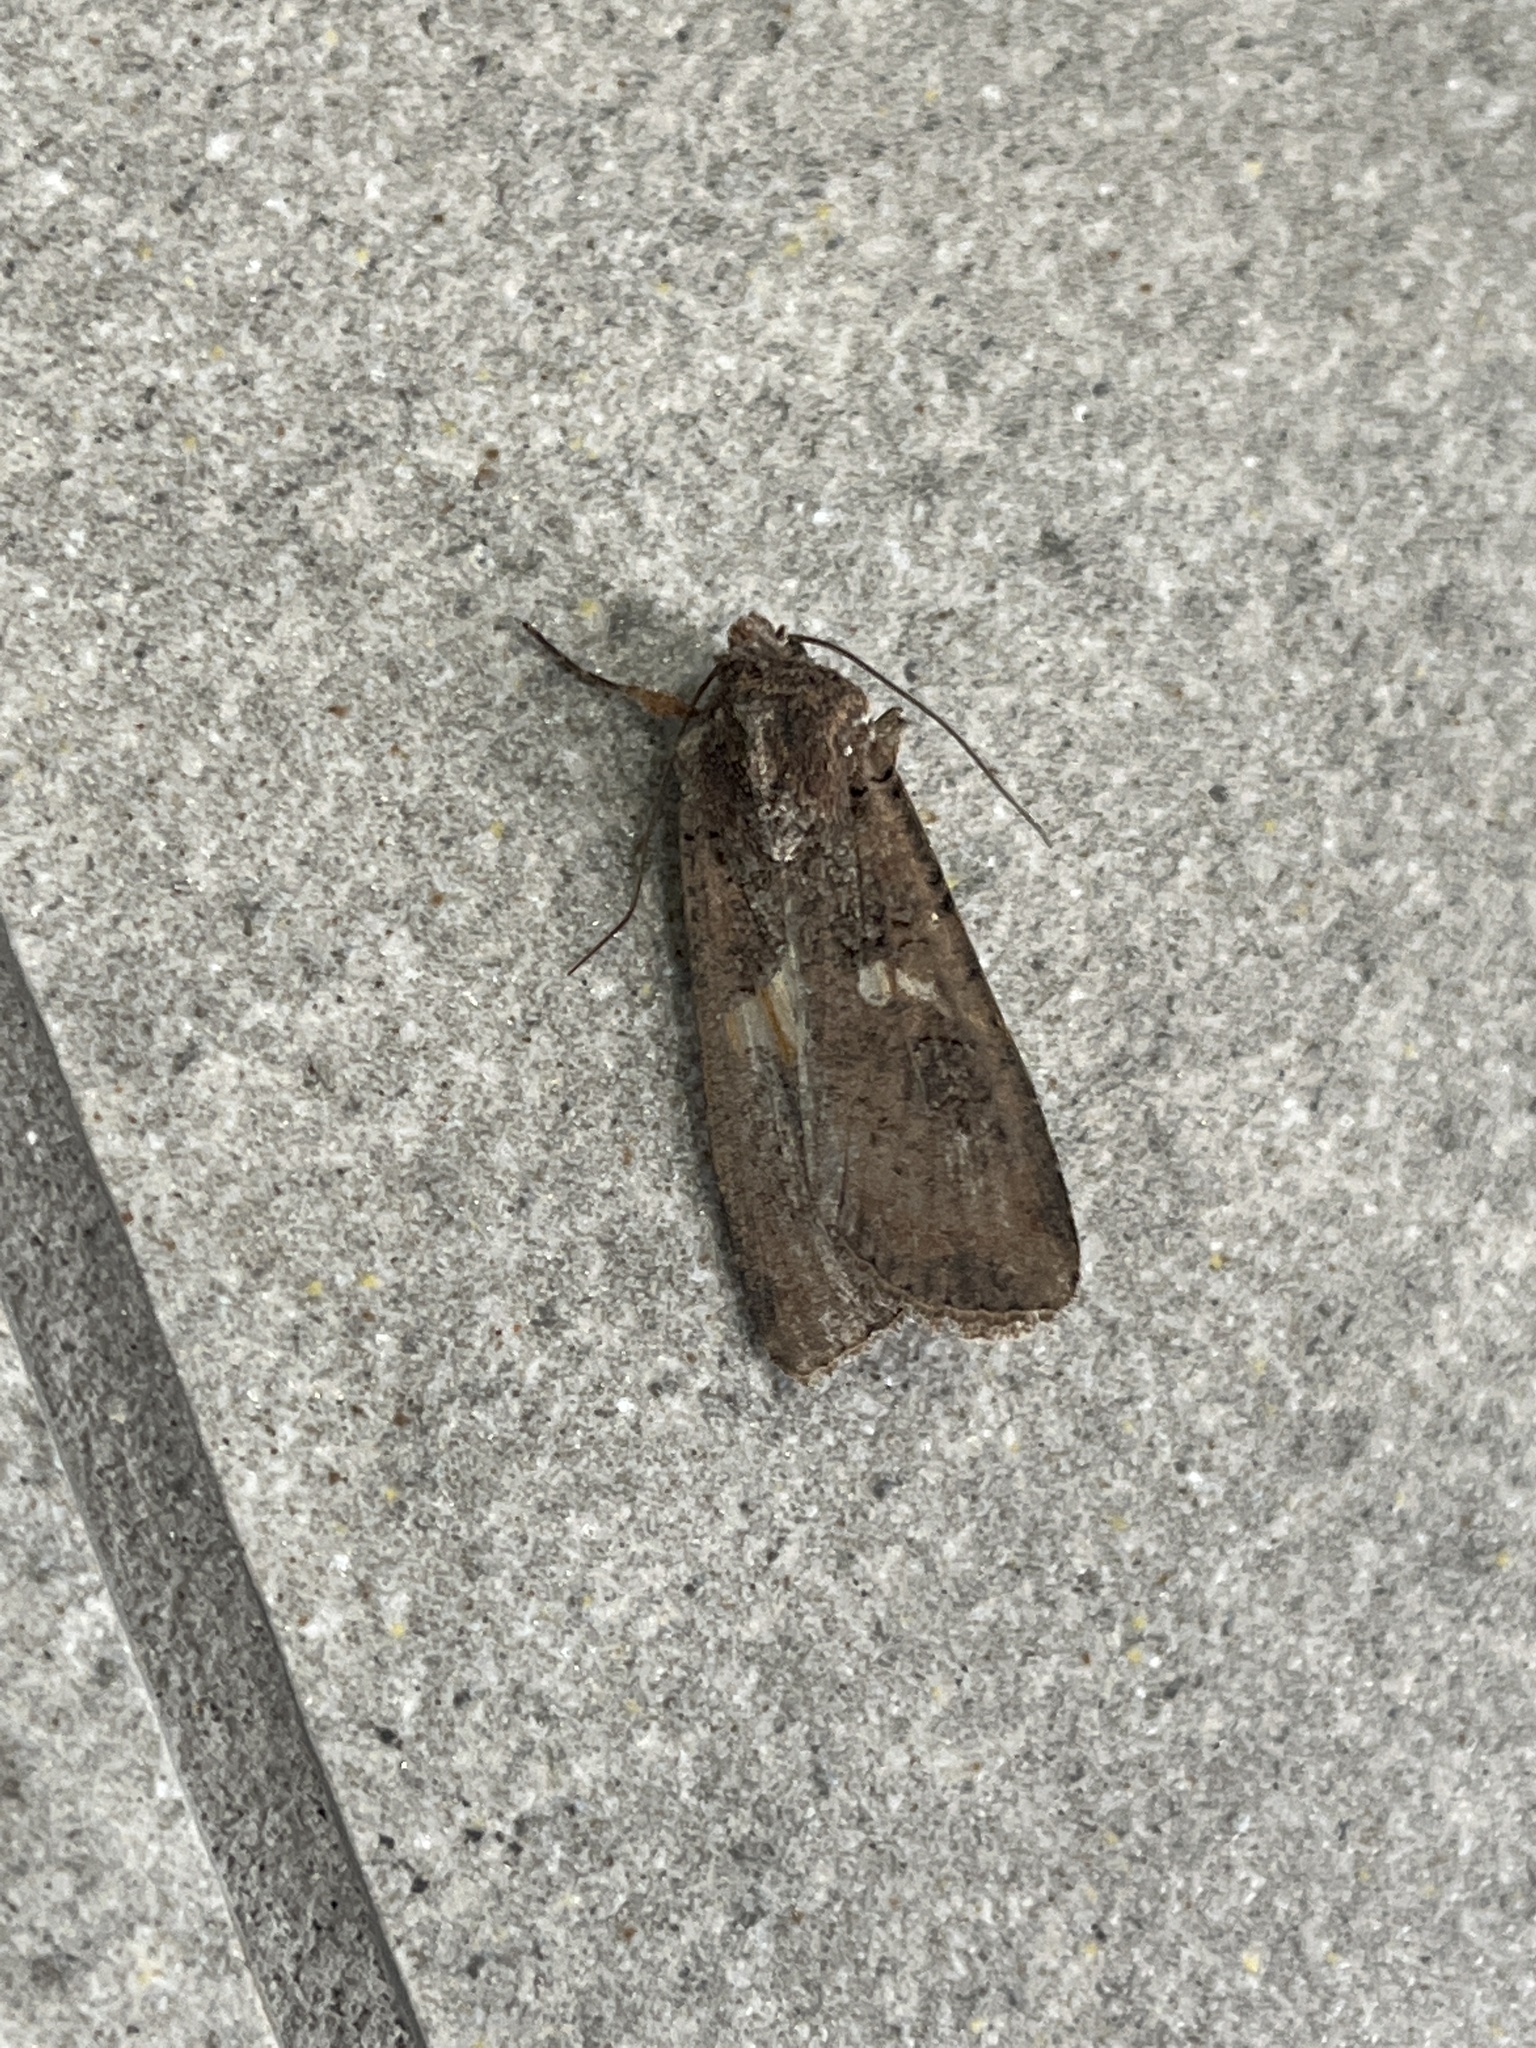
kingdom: Animalia
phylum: Arthropoda
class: Insecta
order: Lepidoptera
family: Noctuidae
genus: Peridroma
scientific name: Peridroma saucia
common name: Pearly underwing
